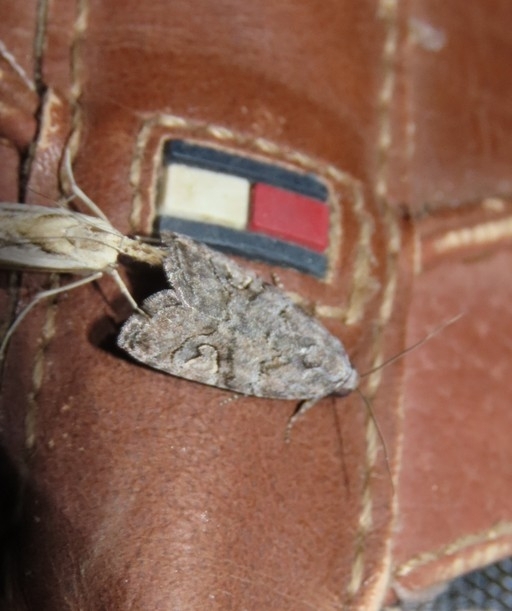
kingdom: Animalia
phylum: Arthropoda
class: Insecta
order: Lepidoptera
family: Noctuidae
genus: Metaponpneumata
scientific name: Metaponpneumata rogenhoferi
